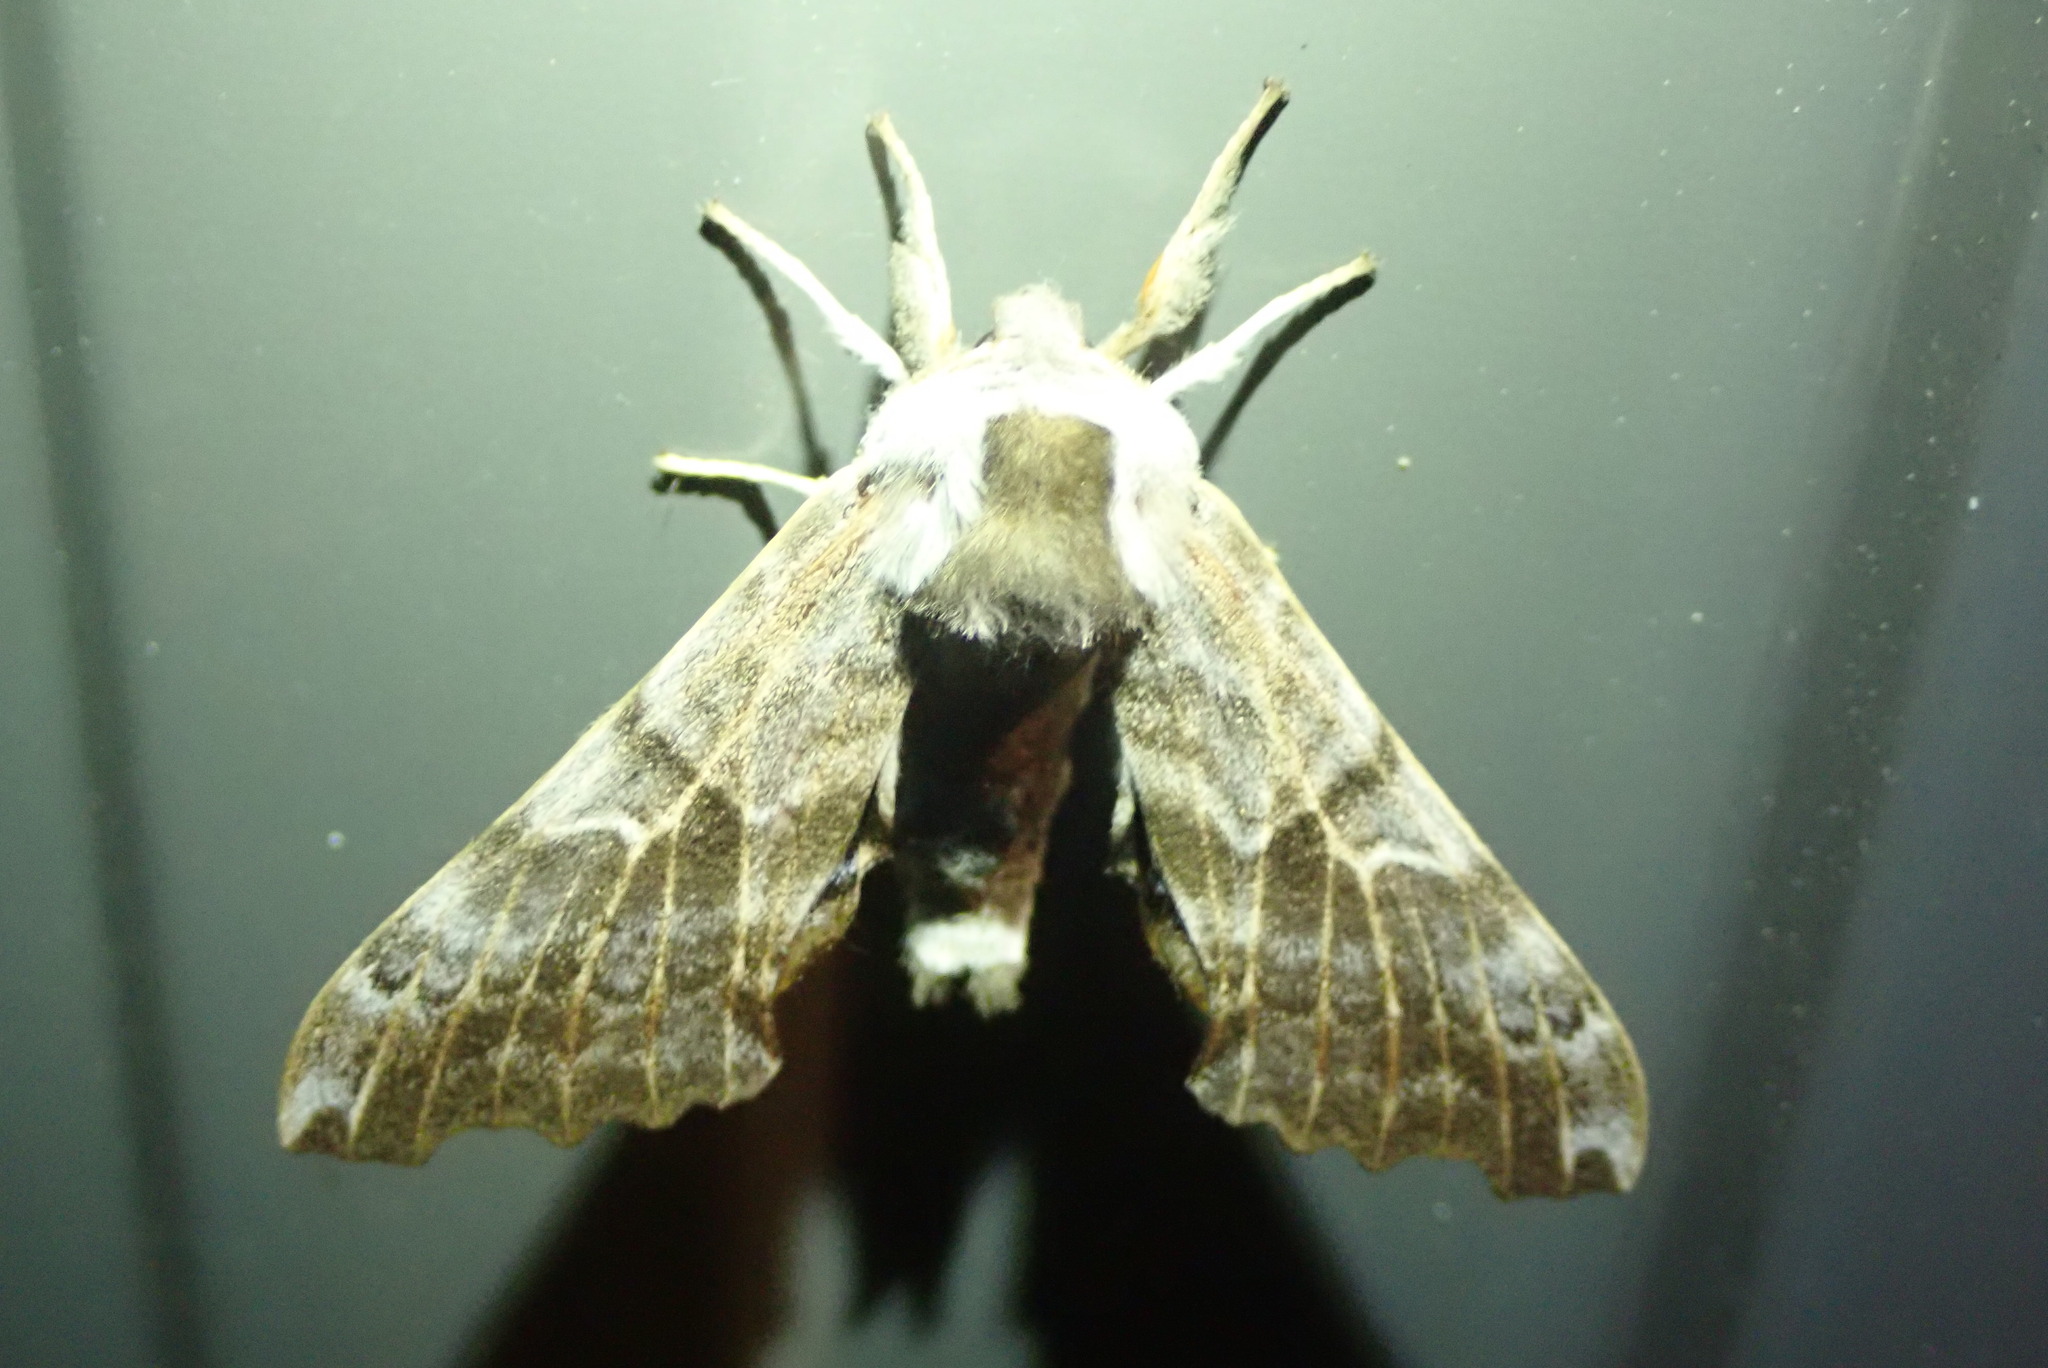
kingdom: Animalia
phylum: Arthropoda
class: Insecta
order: Lepidoptera
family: Sphingidae
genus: Smerinthus
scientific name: Smerinthus cerisyi
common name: Cerisy's sphinx moth
